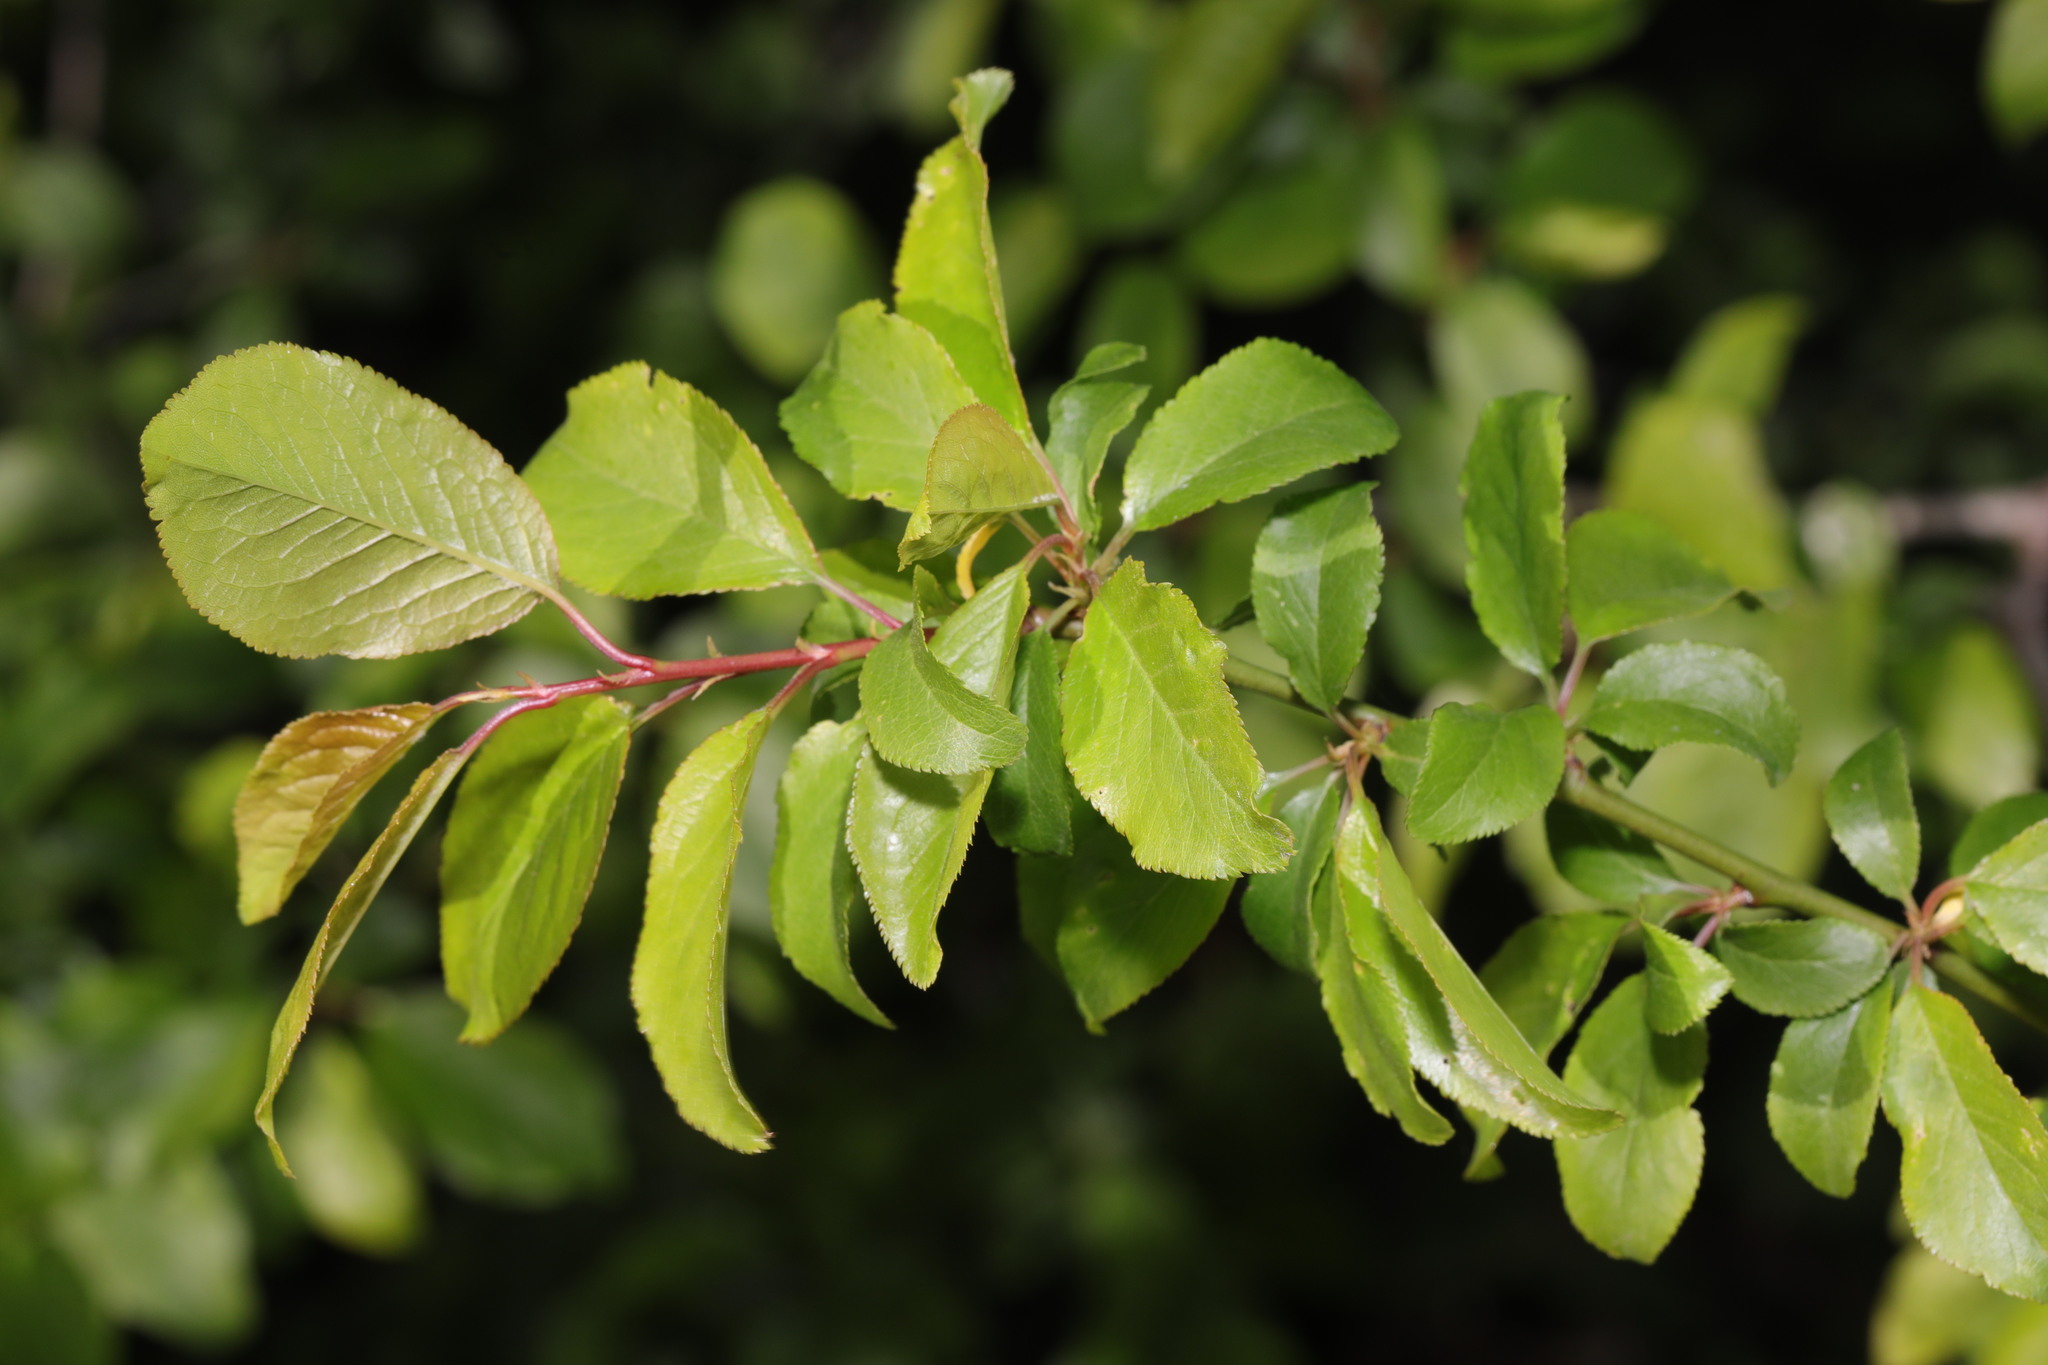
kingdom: Plantae
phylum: Tracheophyta
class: Magnoliopsida
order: Rosales
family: Rosaceae
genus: Prunus
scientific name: Prunus spinosa
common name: Blackthorn
